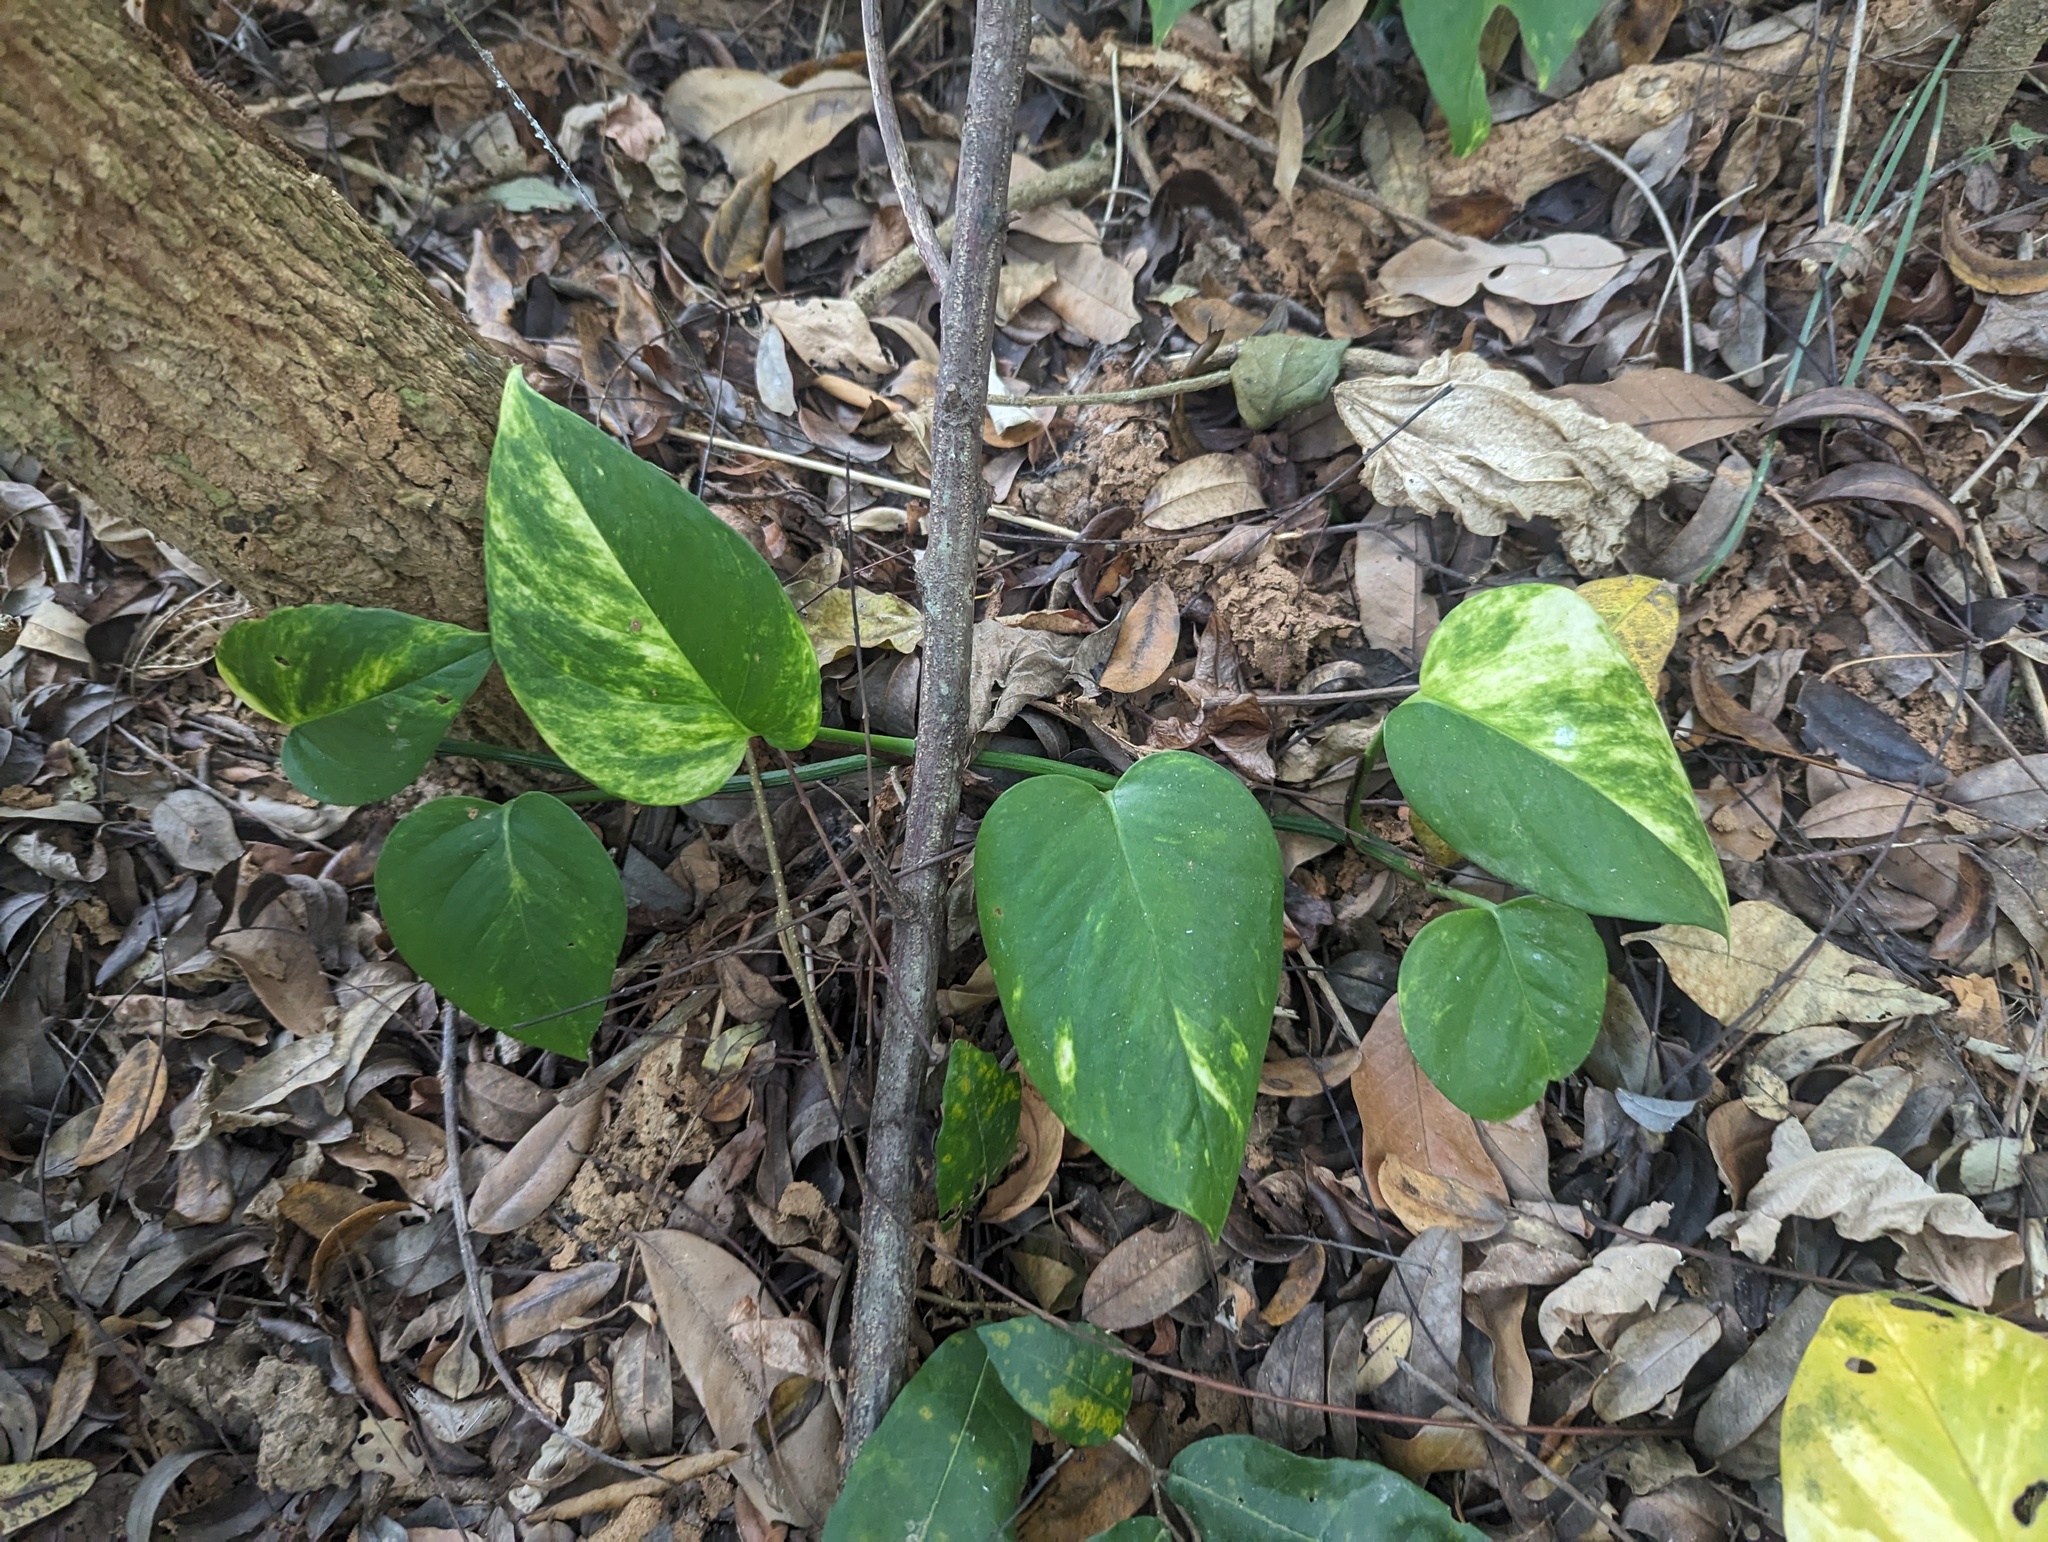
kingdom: Plantae
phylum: Tracheophyta
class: Liliopsida
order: Alismatales
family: Araceae
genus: Epipremnum
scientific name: Epipremnum aureum
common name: Golden hunter's-robe
